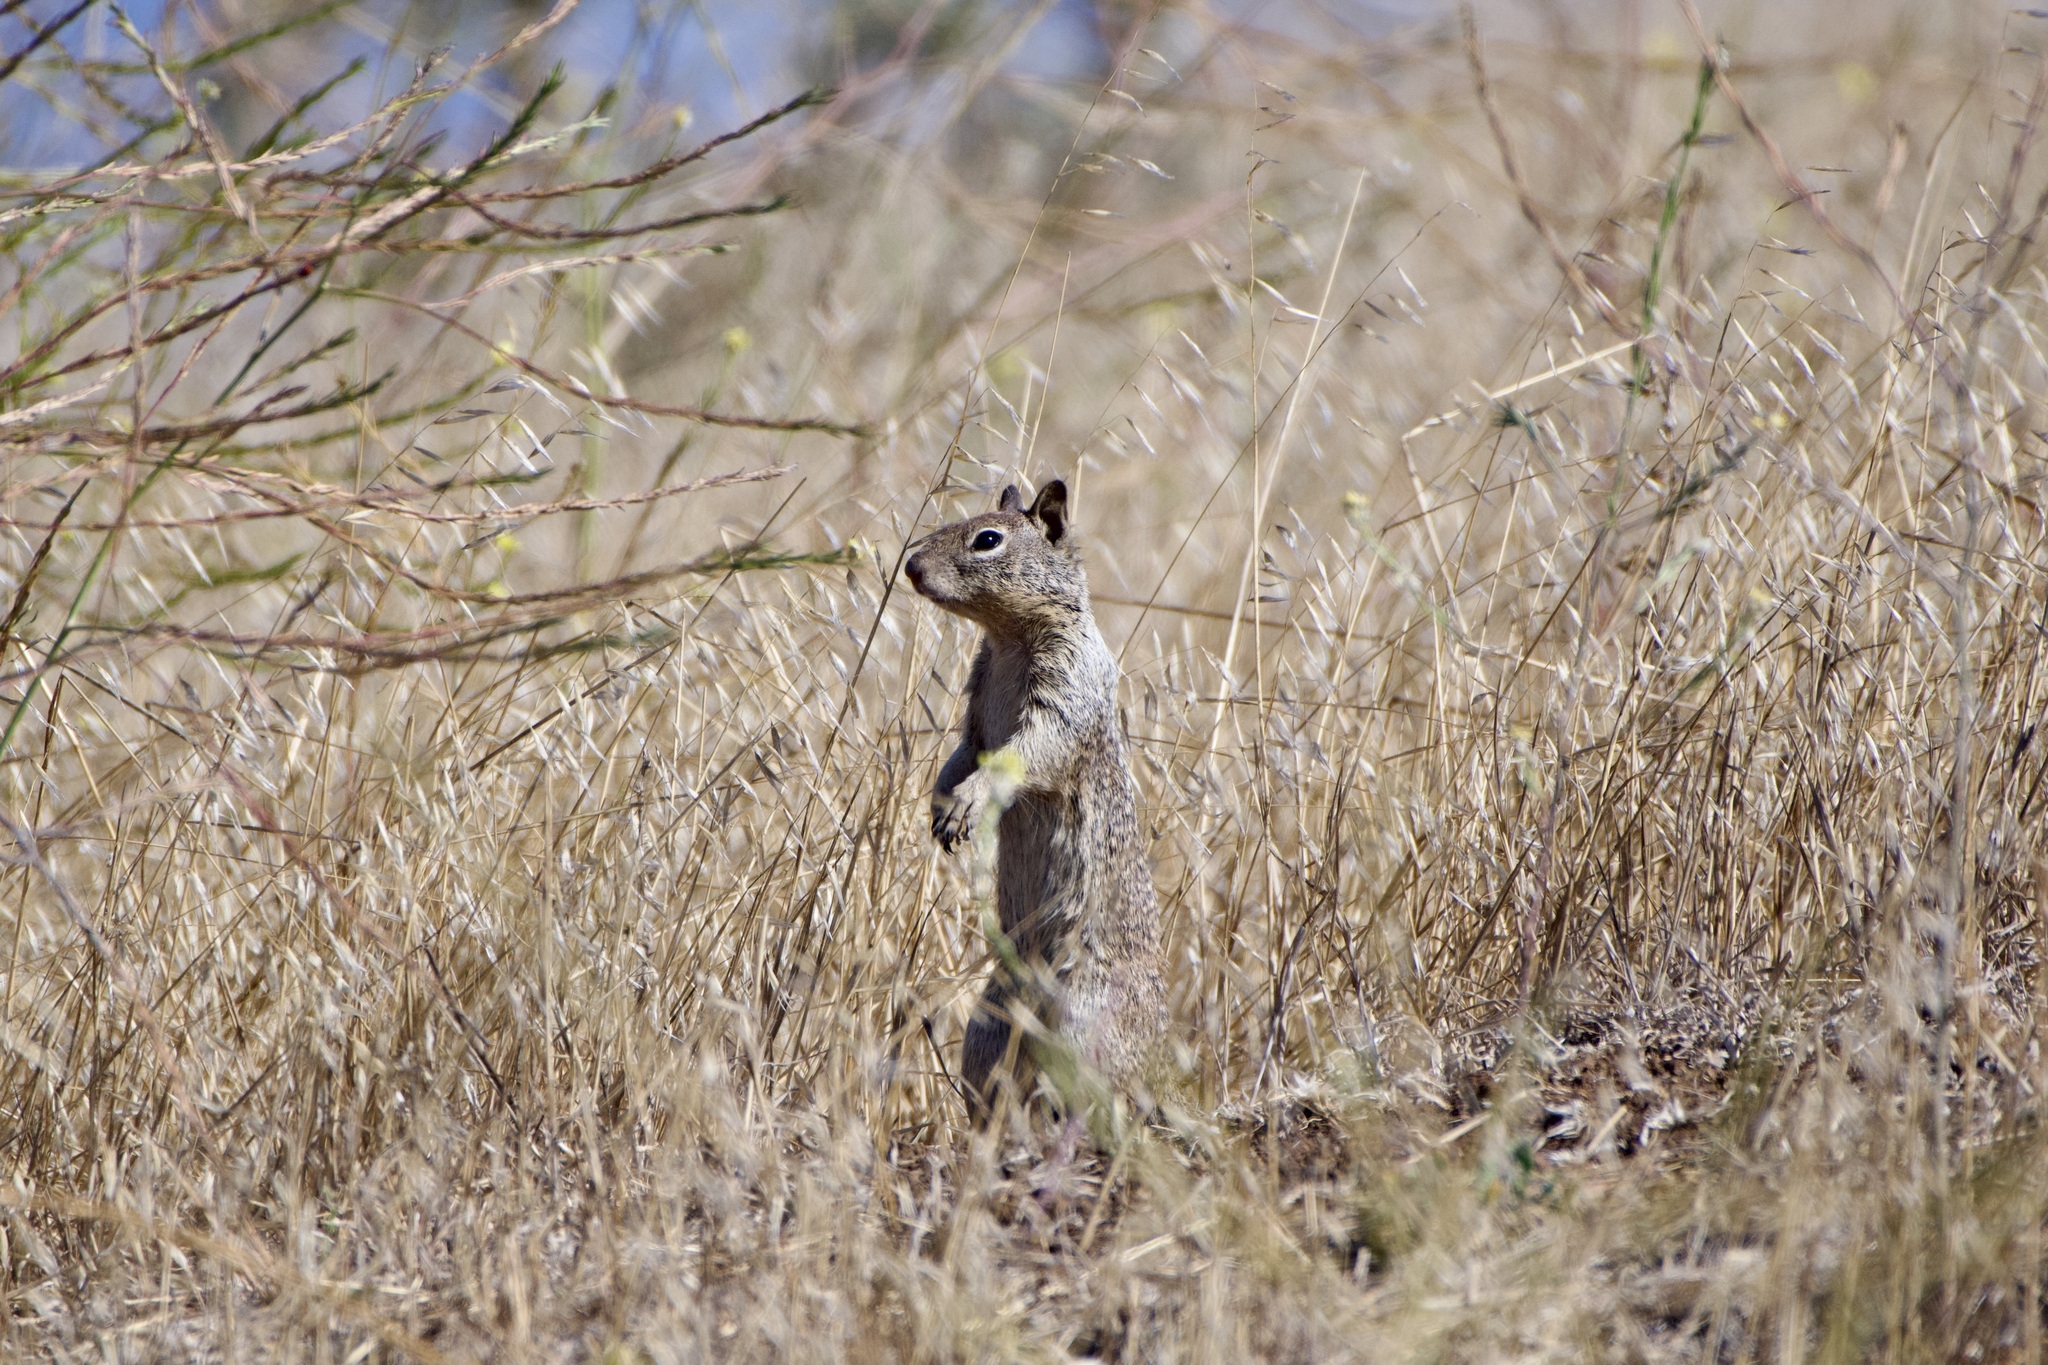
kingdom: Animalia
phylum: Chordata
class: Mammalia
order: Rodentia
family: Sciuridae
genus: Otospermophilus
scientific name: Otospermophilus beecheyi
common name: California ground squirrel
